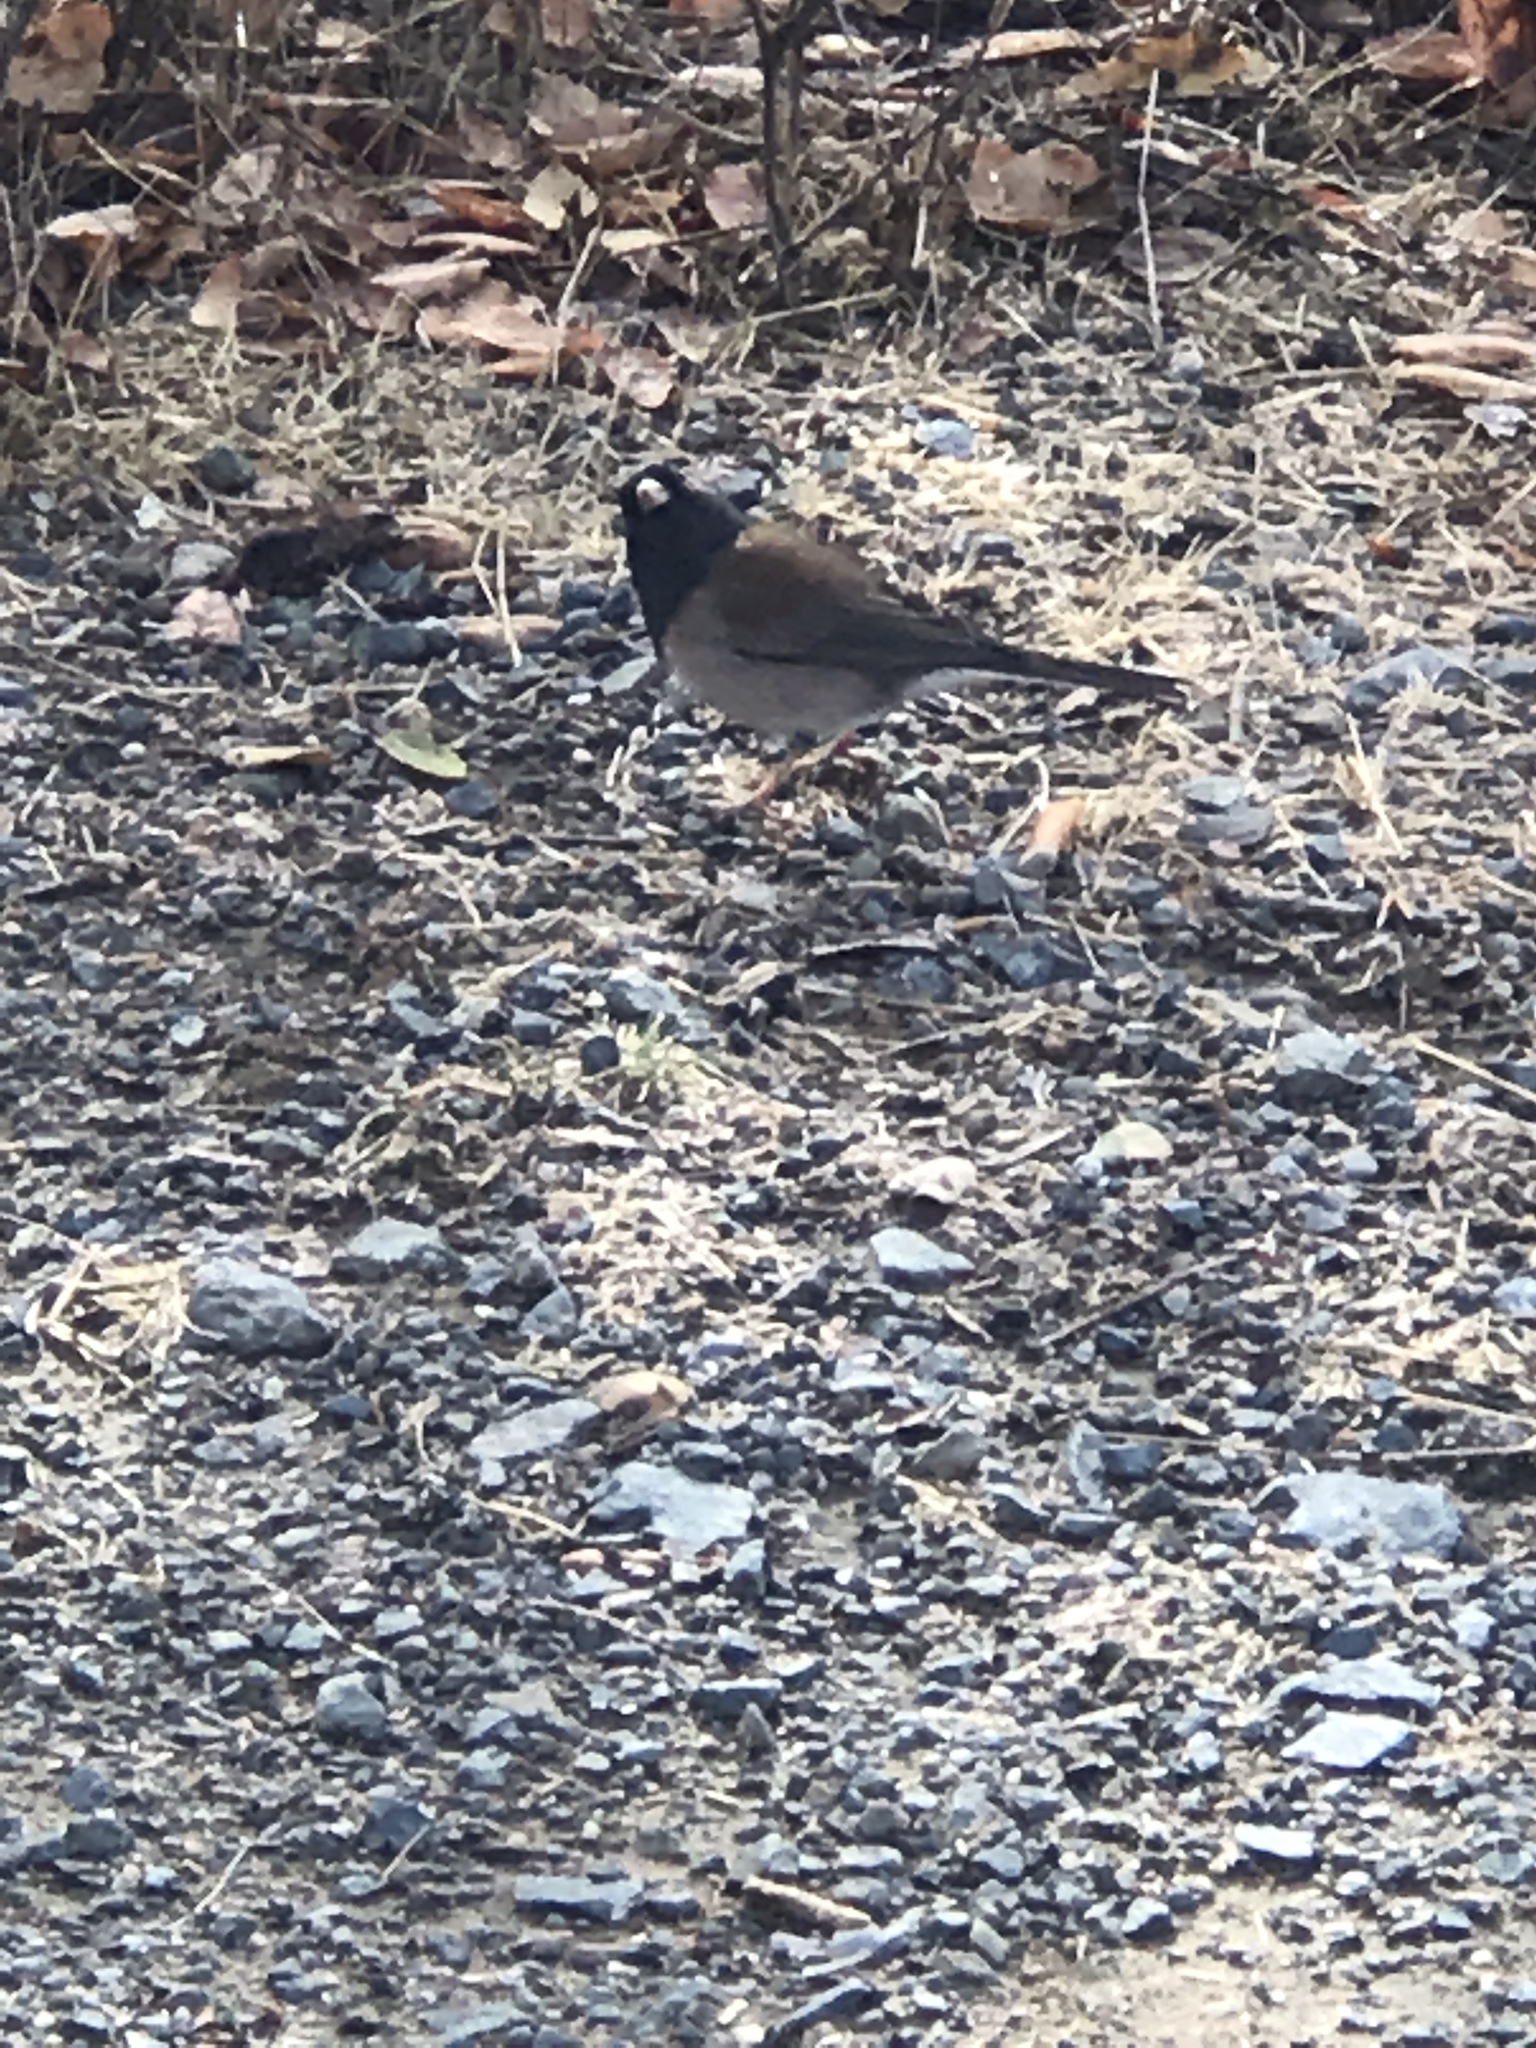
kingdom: Animalia
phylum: Chordata
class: Aves
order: Passeriformes
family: Passerellidae
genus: Junco
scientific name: Junco hyemalis
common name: Dark-eyed junco
